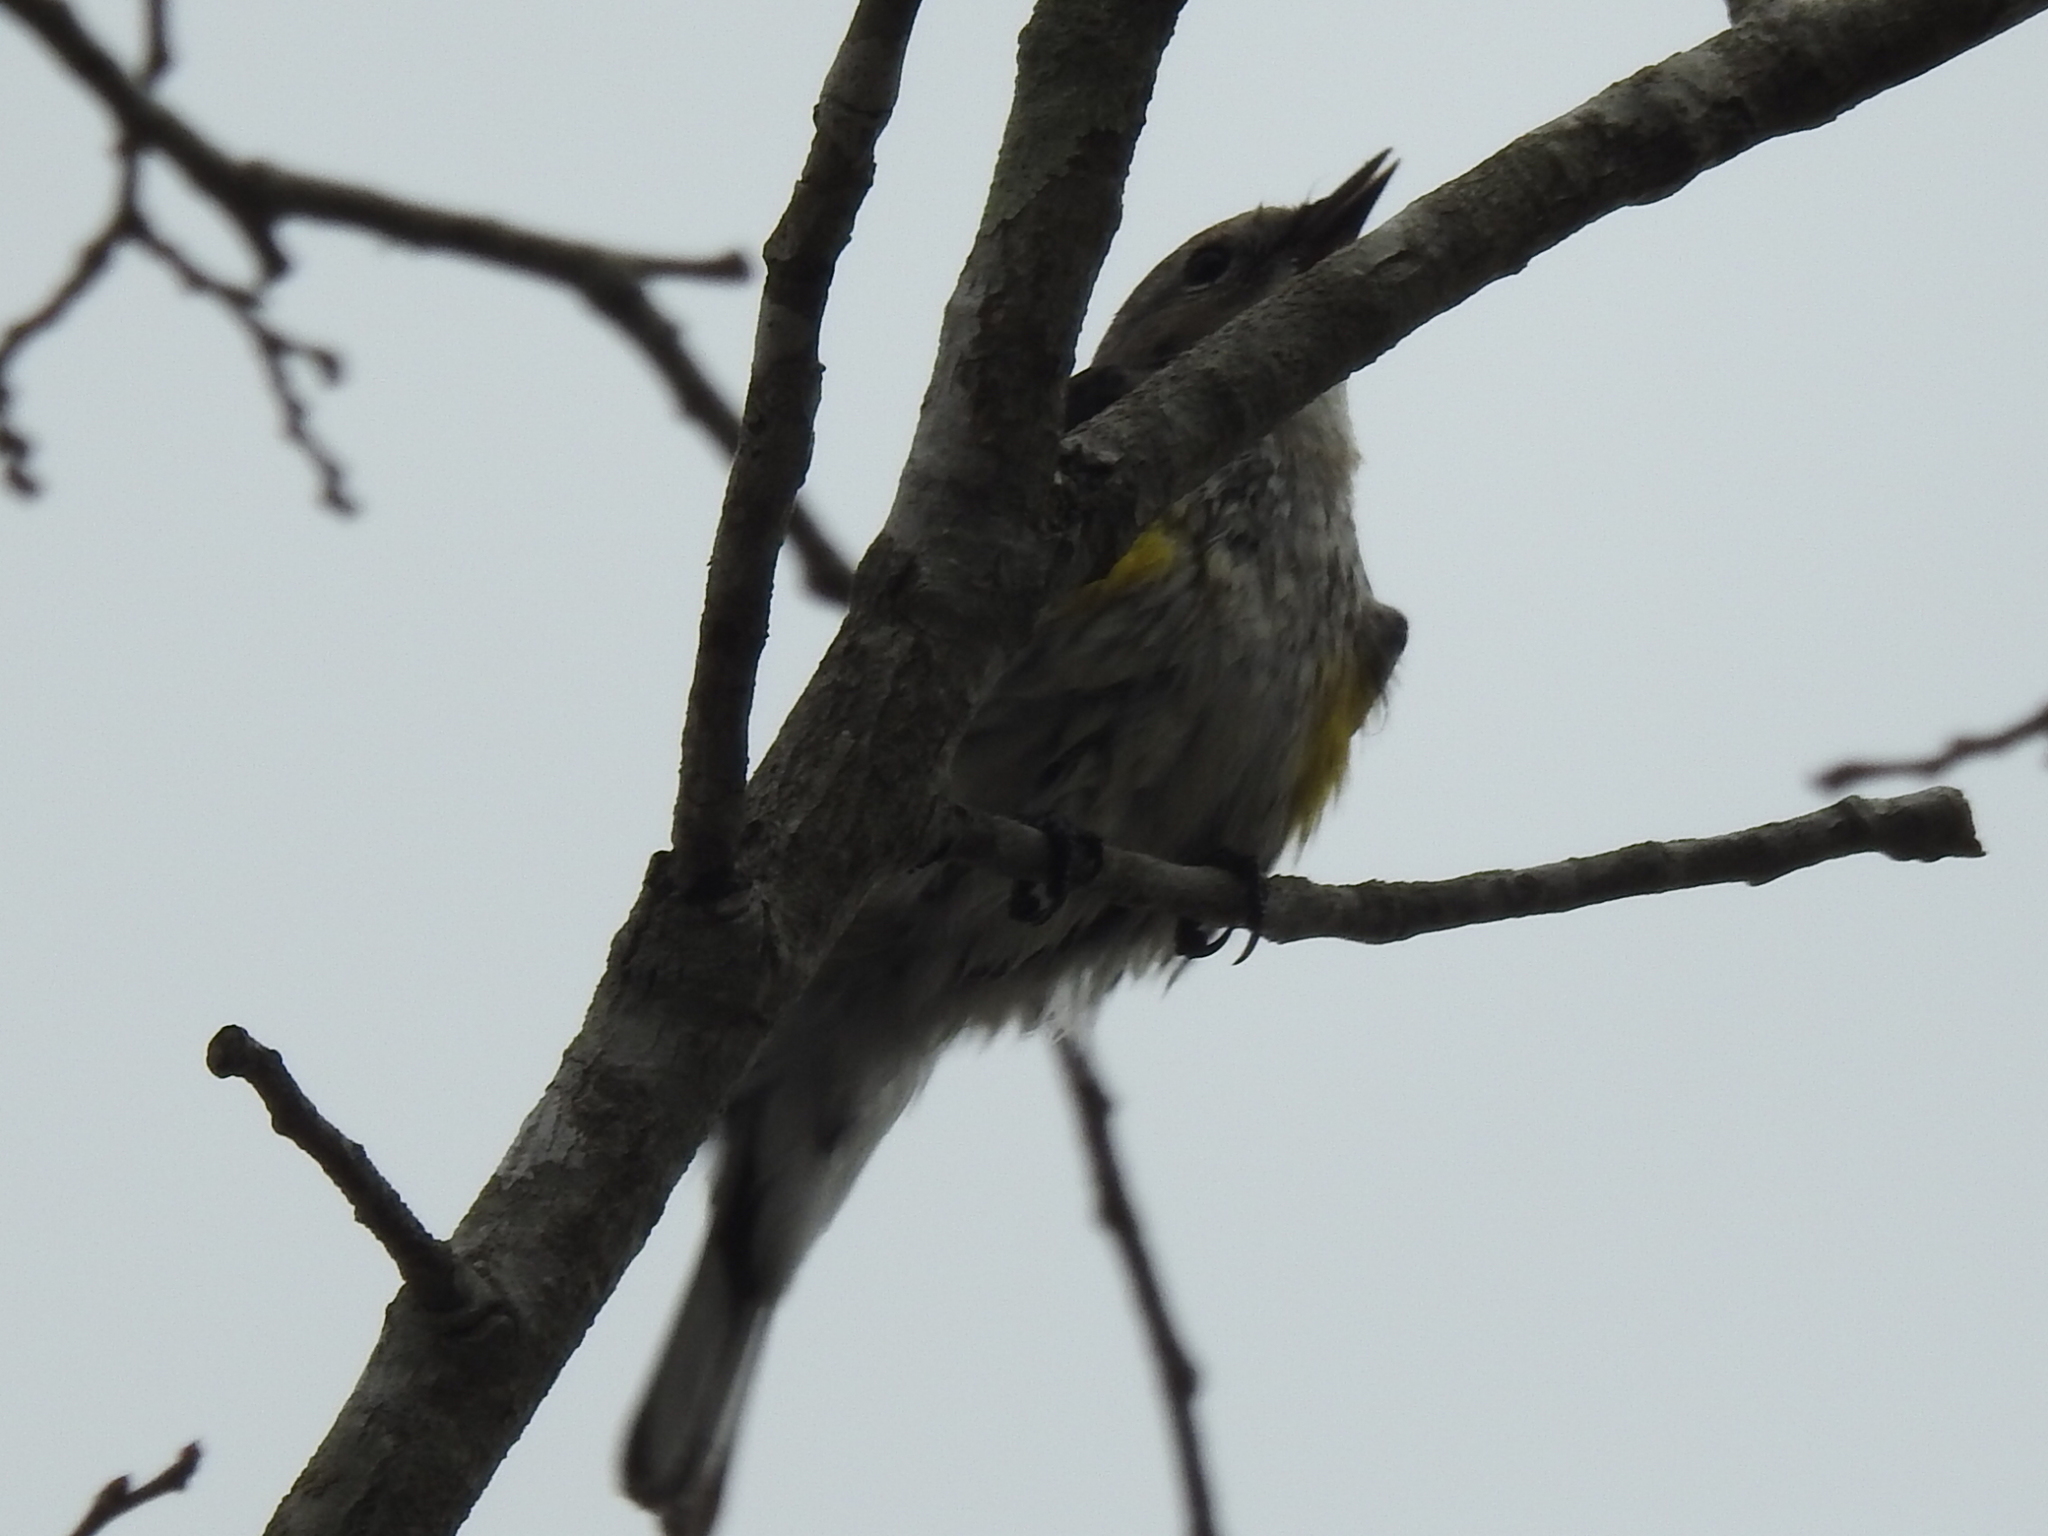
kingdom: Animalia
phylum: Chordata
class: Aves
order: Passeriformes
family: Parulidae
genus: Setophaga
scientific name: Setophaga coronata
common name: Myrtle warbler
